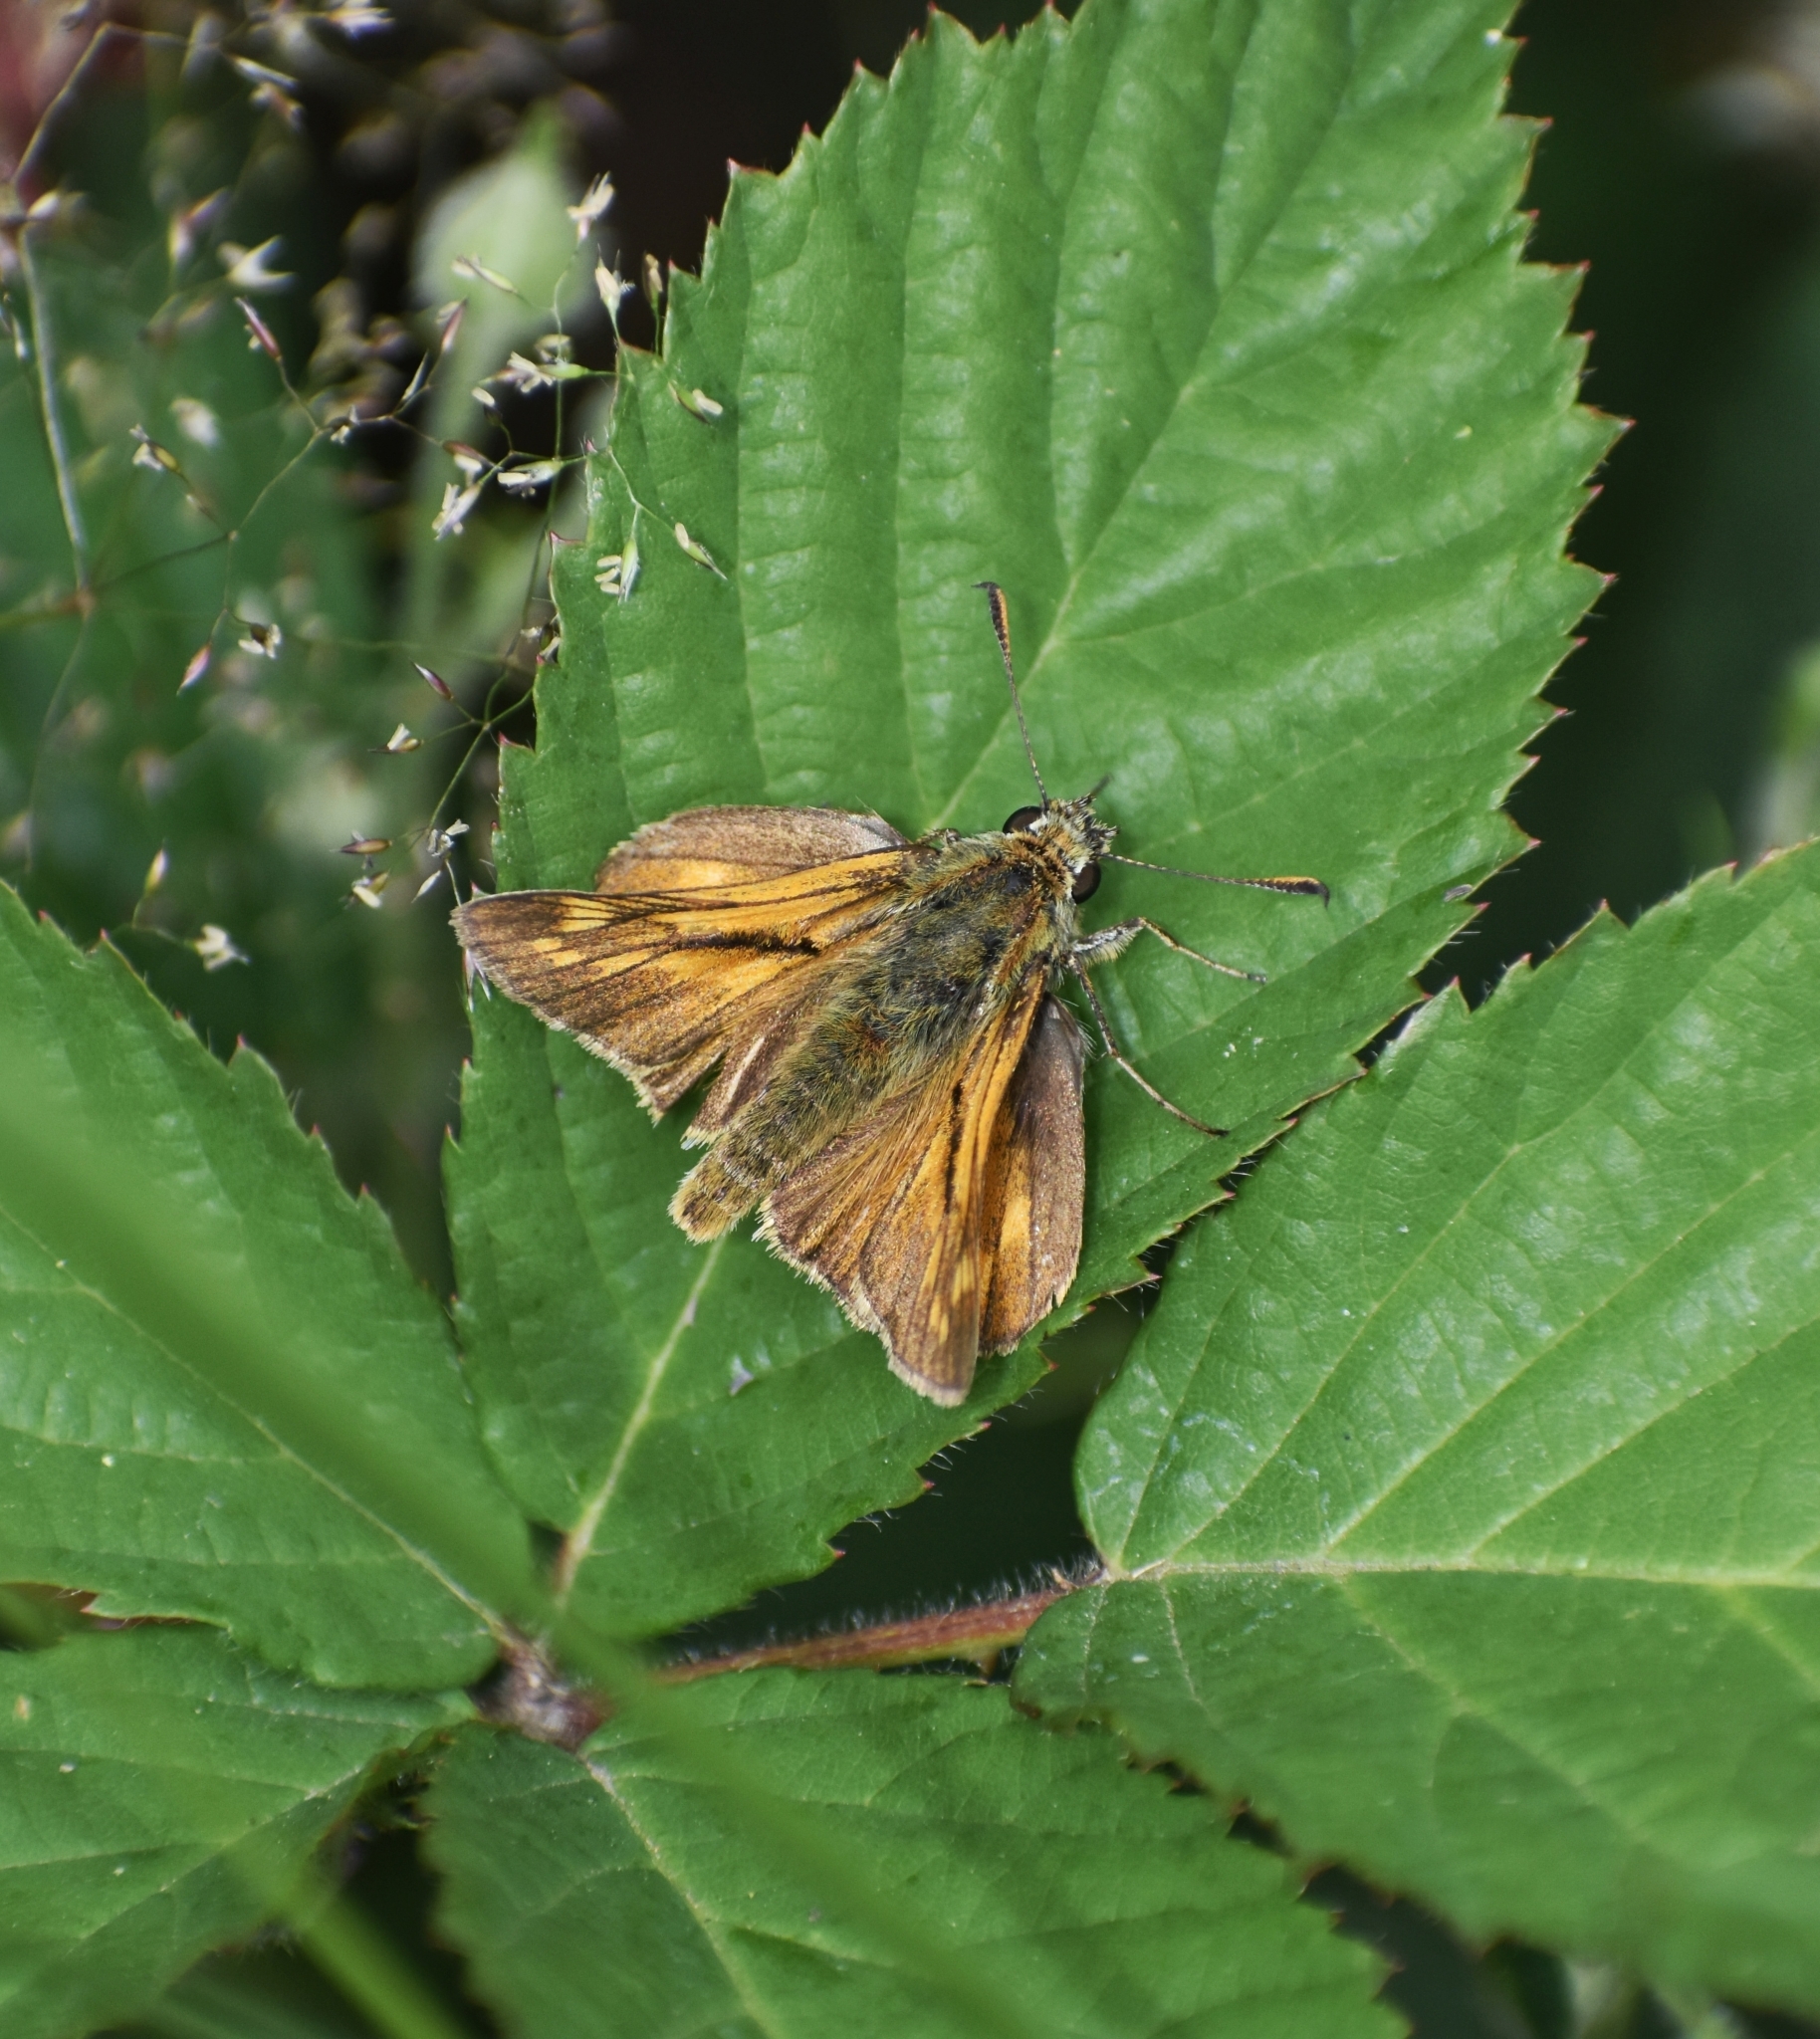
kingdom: Animalia
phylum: Arthropoda
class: Insecta
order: Lepidoptera
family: Hesperiidae
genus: Ochlodes
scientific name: Ochlodes venata
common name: Large skipper
